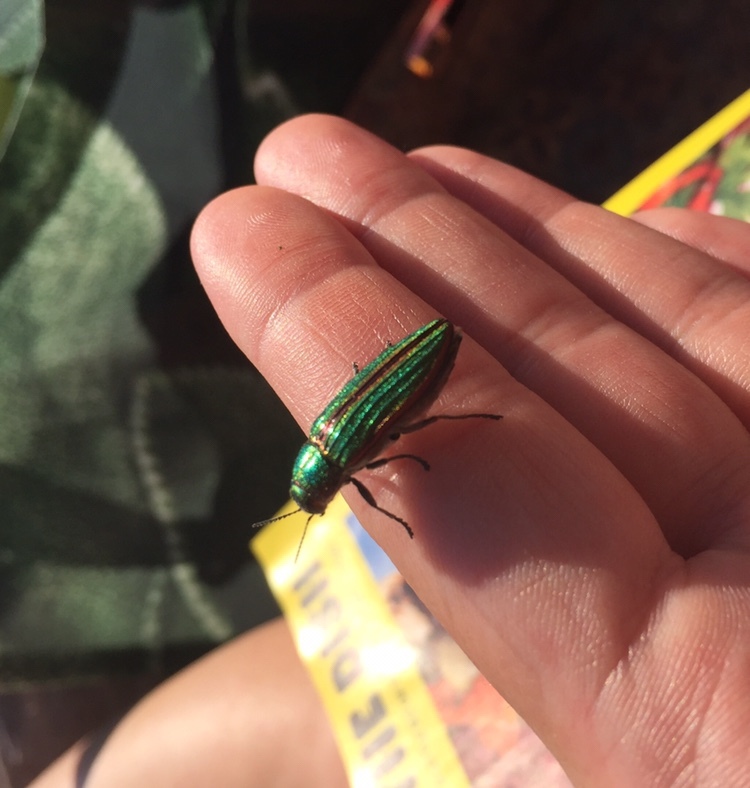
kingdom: Animalia
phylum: Arthropoda
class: Insecta
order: Coleoptera
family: Buprestidae
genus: Buprestis
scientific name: Buprestis aurulenta
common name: Golden buprestid
